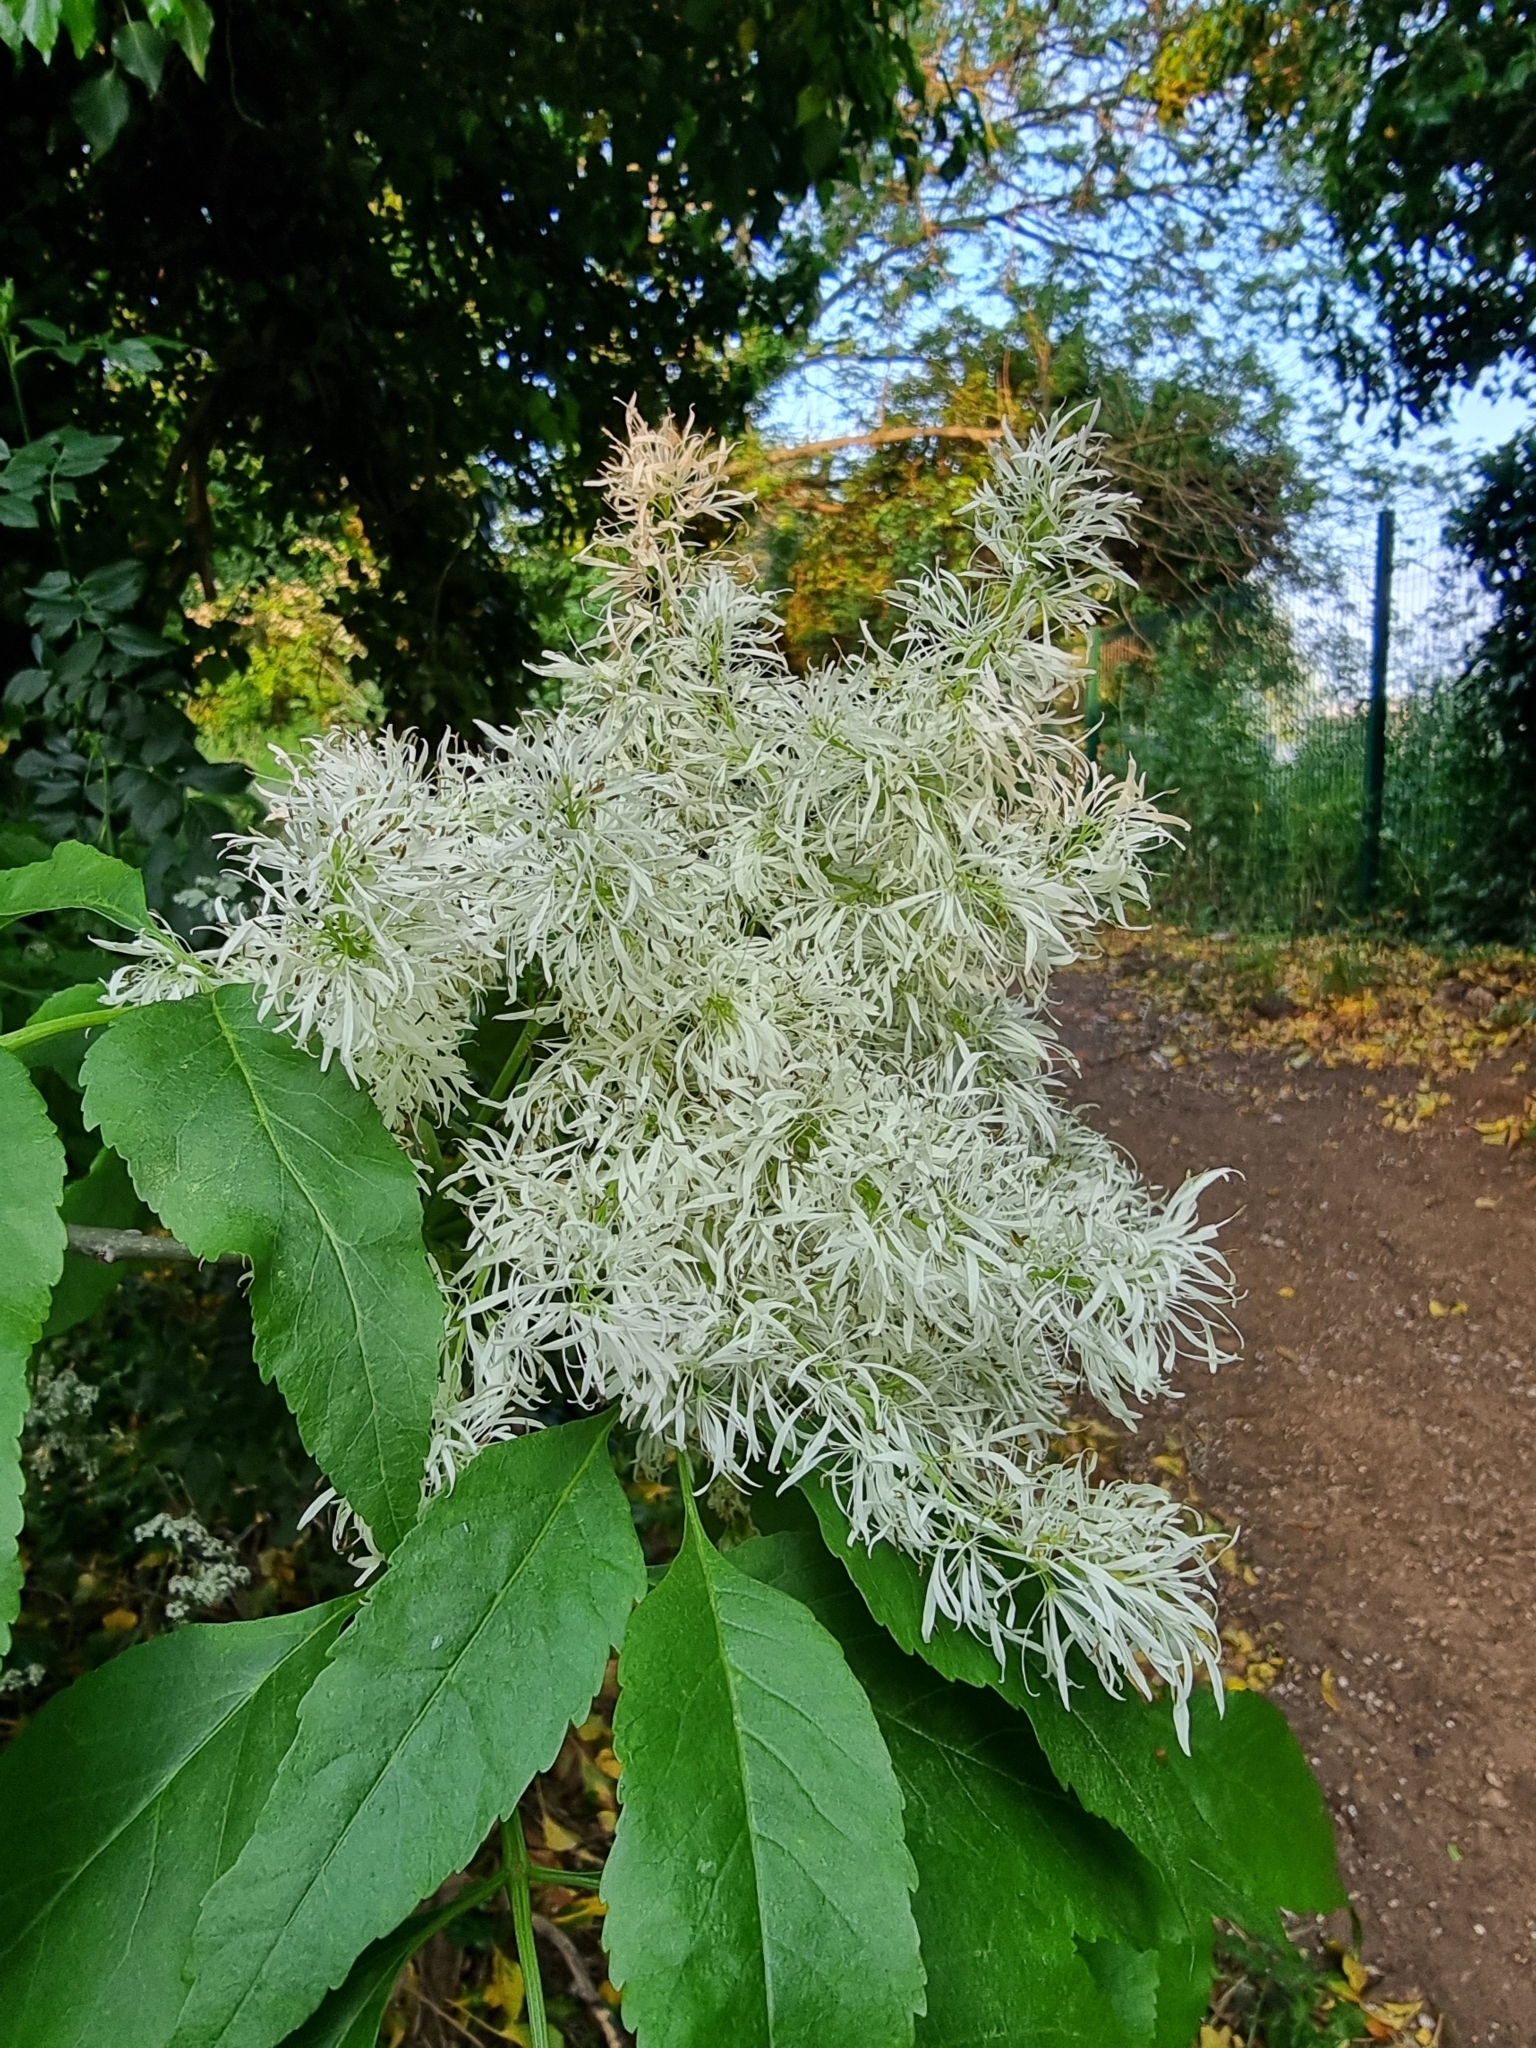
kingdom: Plantae
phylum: Tracheophyta
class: Magnoliopsida
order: Lamiales
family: Oleaceae
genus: Fraxinus
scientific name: Fraxinus ornus
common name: Manna ash
